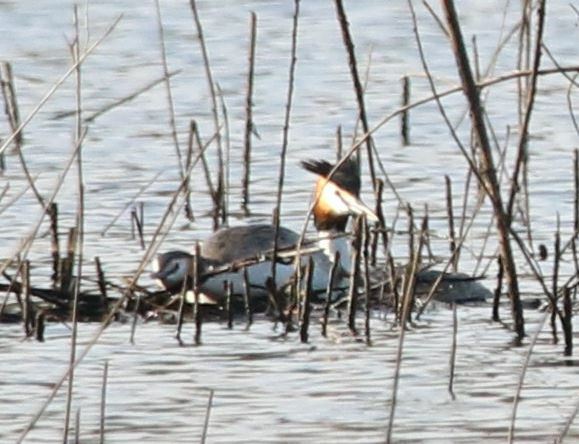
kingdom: Animalia
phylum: Chordata
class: Aves
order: Podicipediformes
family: Podicipedidae
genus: Podiceps
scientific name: Podiceps cristatus
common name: Great crested grebe
